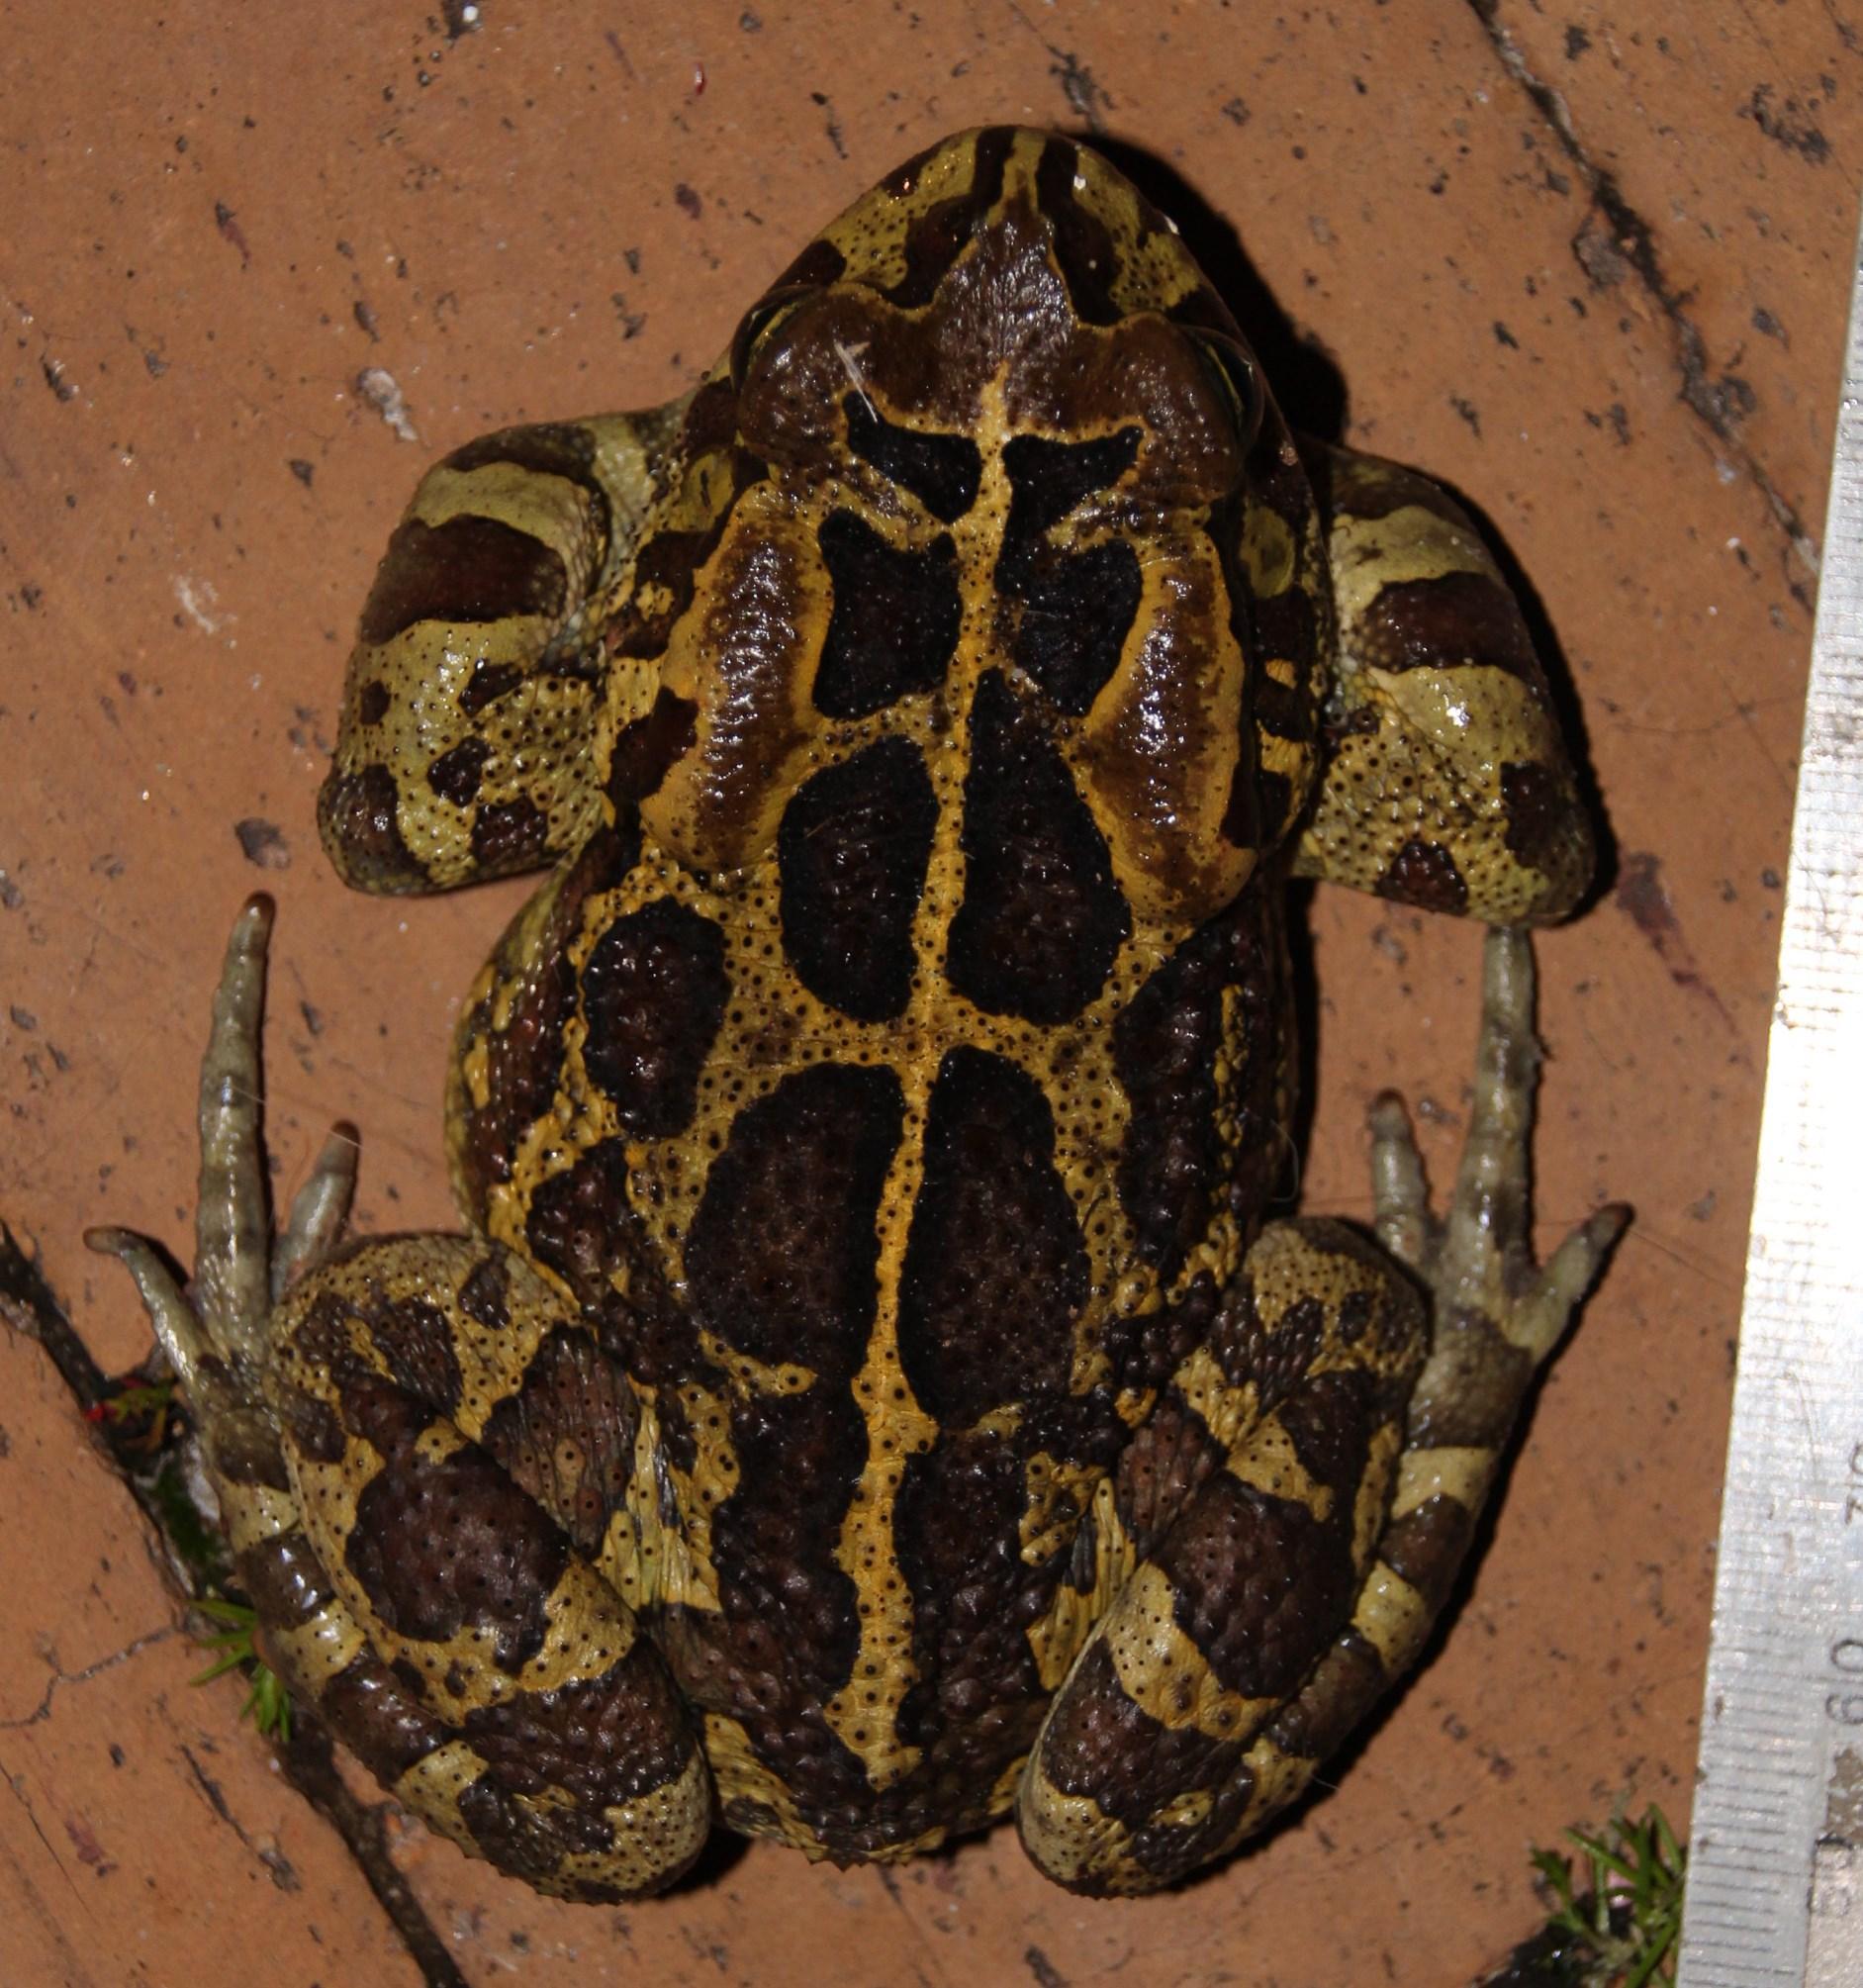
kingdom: Animalia
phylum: Chordata
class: Amphibia
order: Anura
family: Bufonidae
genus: Sclerophrys
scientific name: Sclerophrys pantherina
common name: Panther toad
